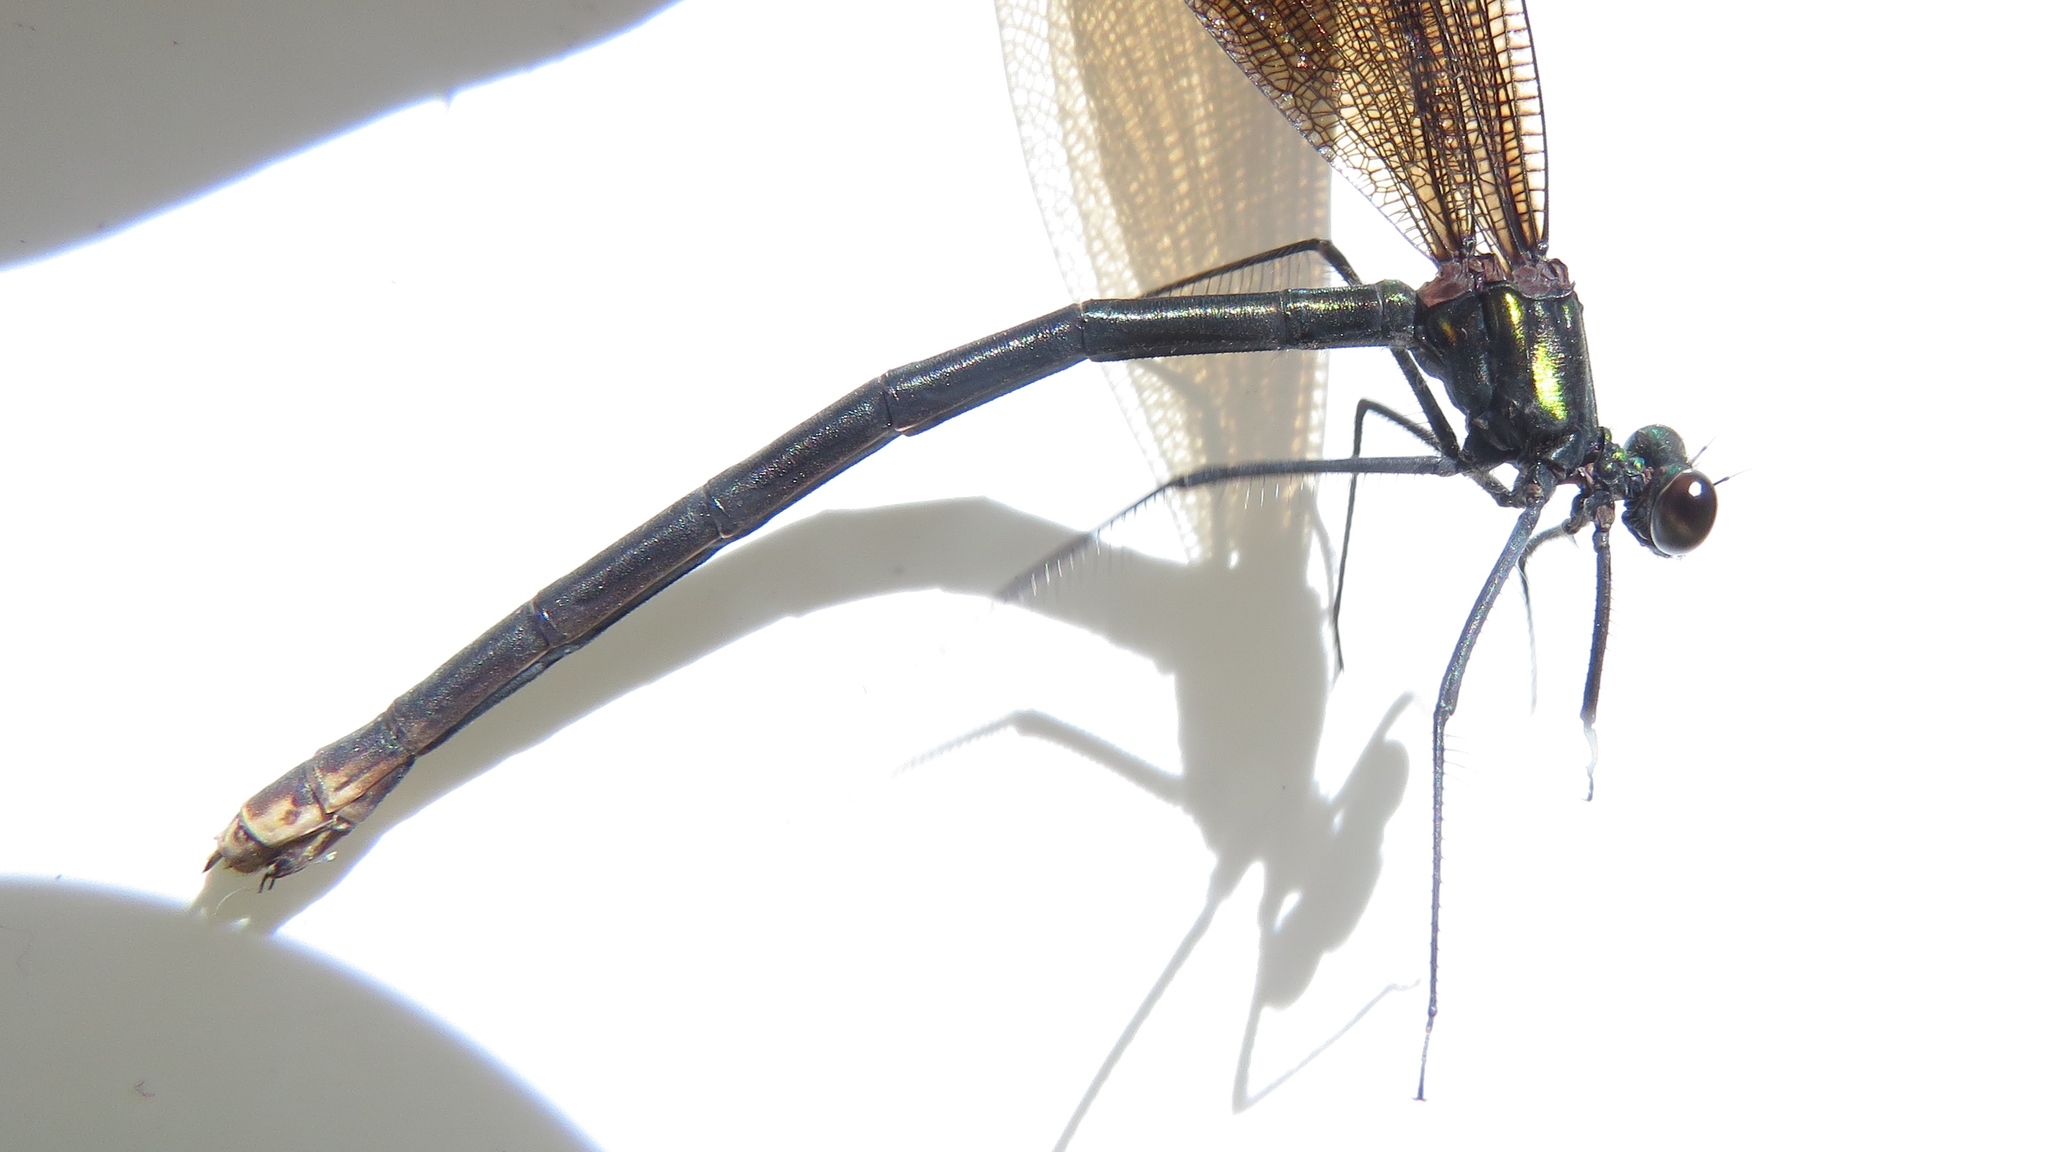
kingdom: Animalia
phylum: Arthropoda
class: Insecta
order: Odonata
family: Calopterygidae
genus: Calopteryx
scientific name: Calopteryx maculata
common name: Ebony jewelwing
